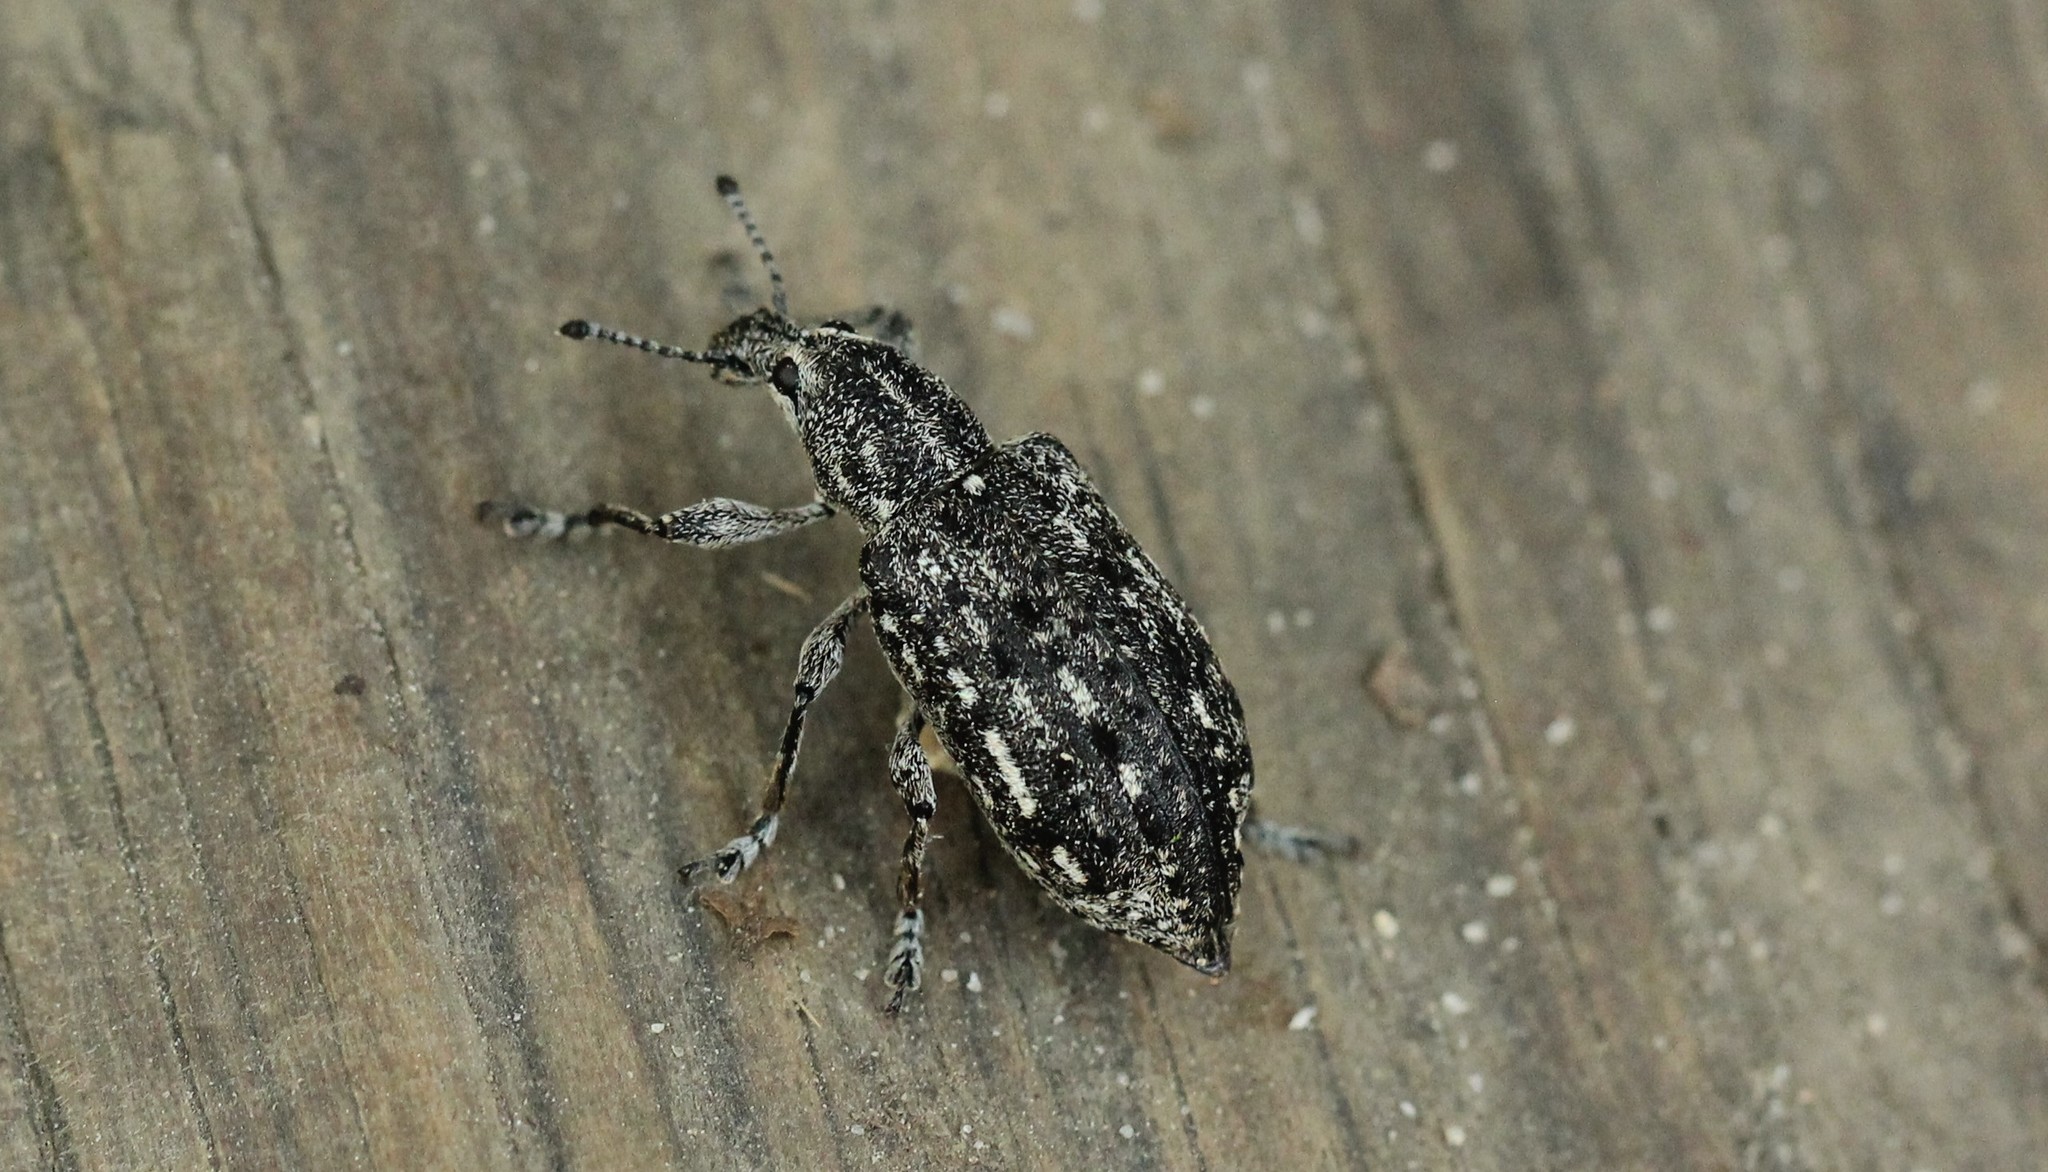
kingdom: Animalia
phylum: Arthropoda
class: Insecta
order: Coleoptera
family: Ithyceridae
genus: Ithycerus
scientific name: Ithycerus noveboracensis
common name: New york weevil
